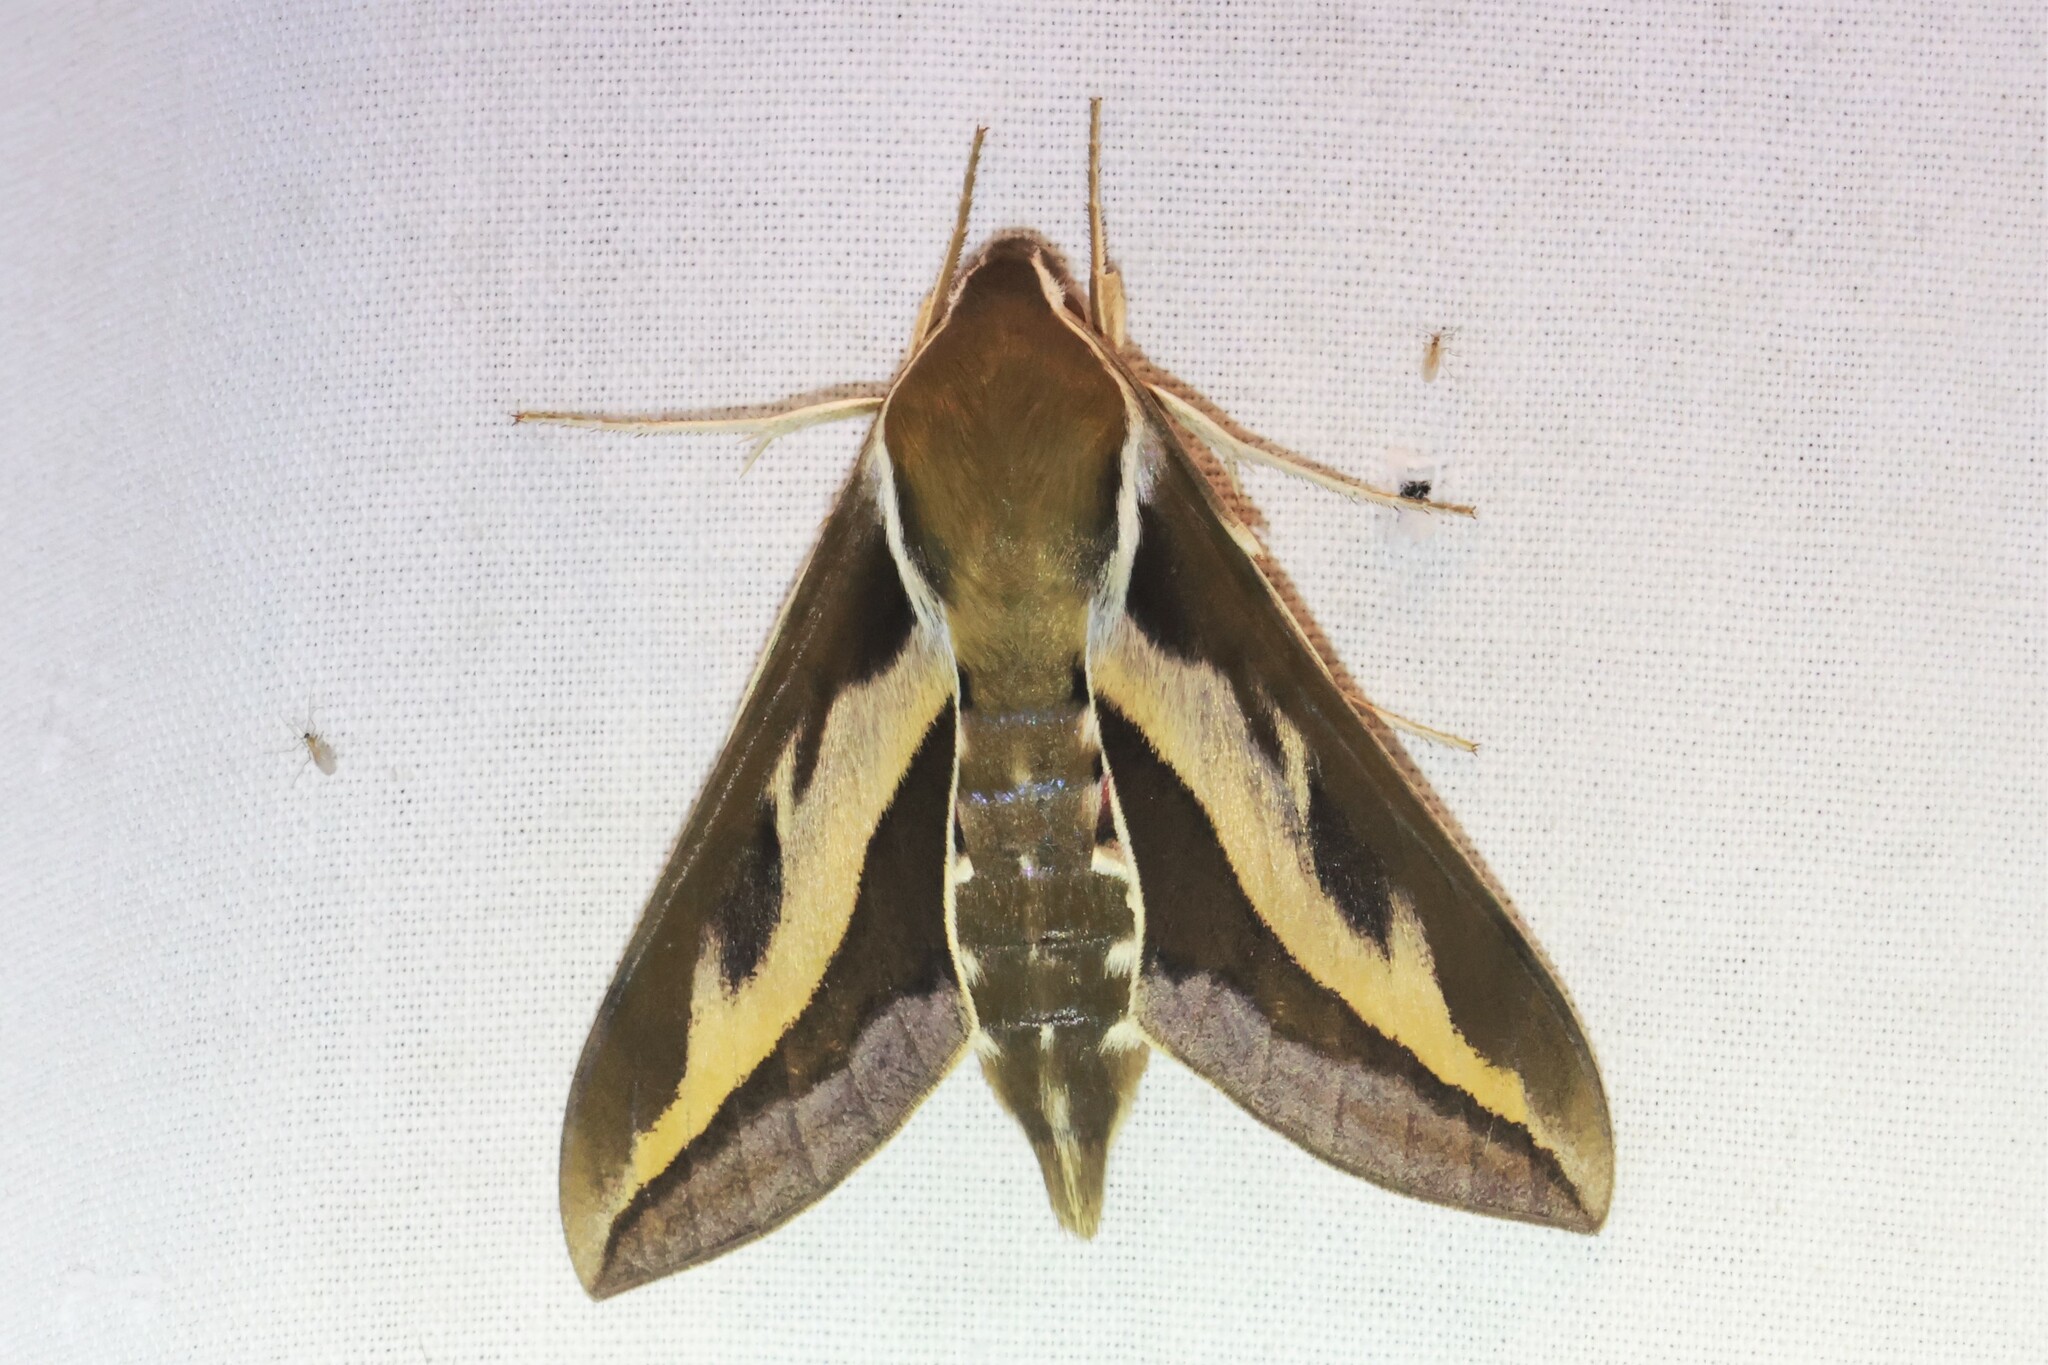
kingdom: Animalia
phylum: Arthropoda
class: Insecta
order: Lepidoptera
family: Sphingidae
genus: Hyles
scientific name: Hyles gallii
